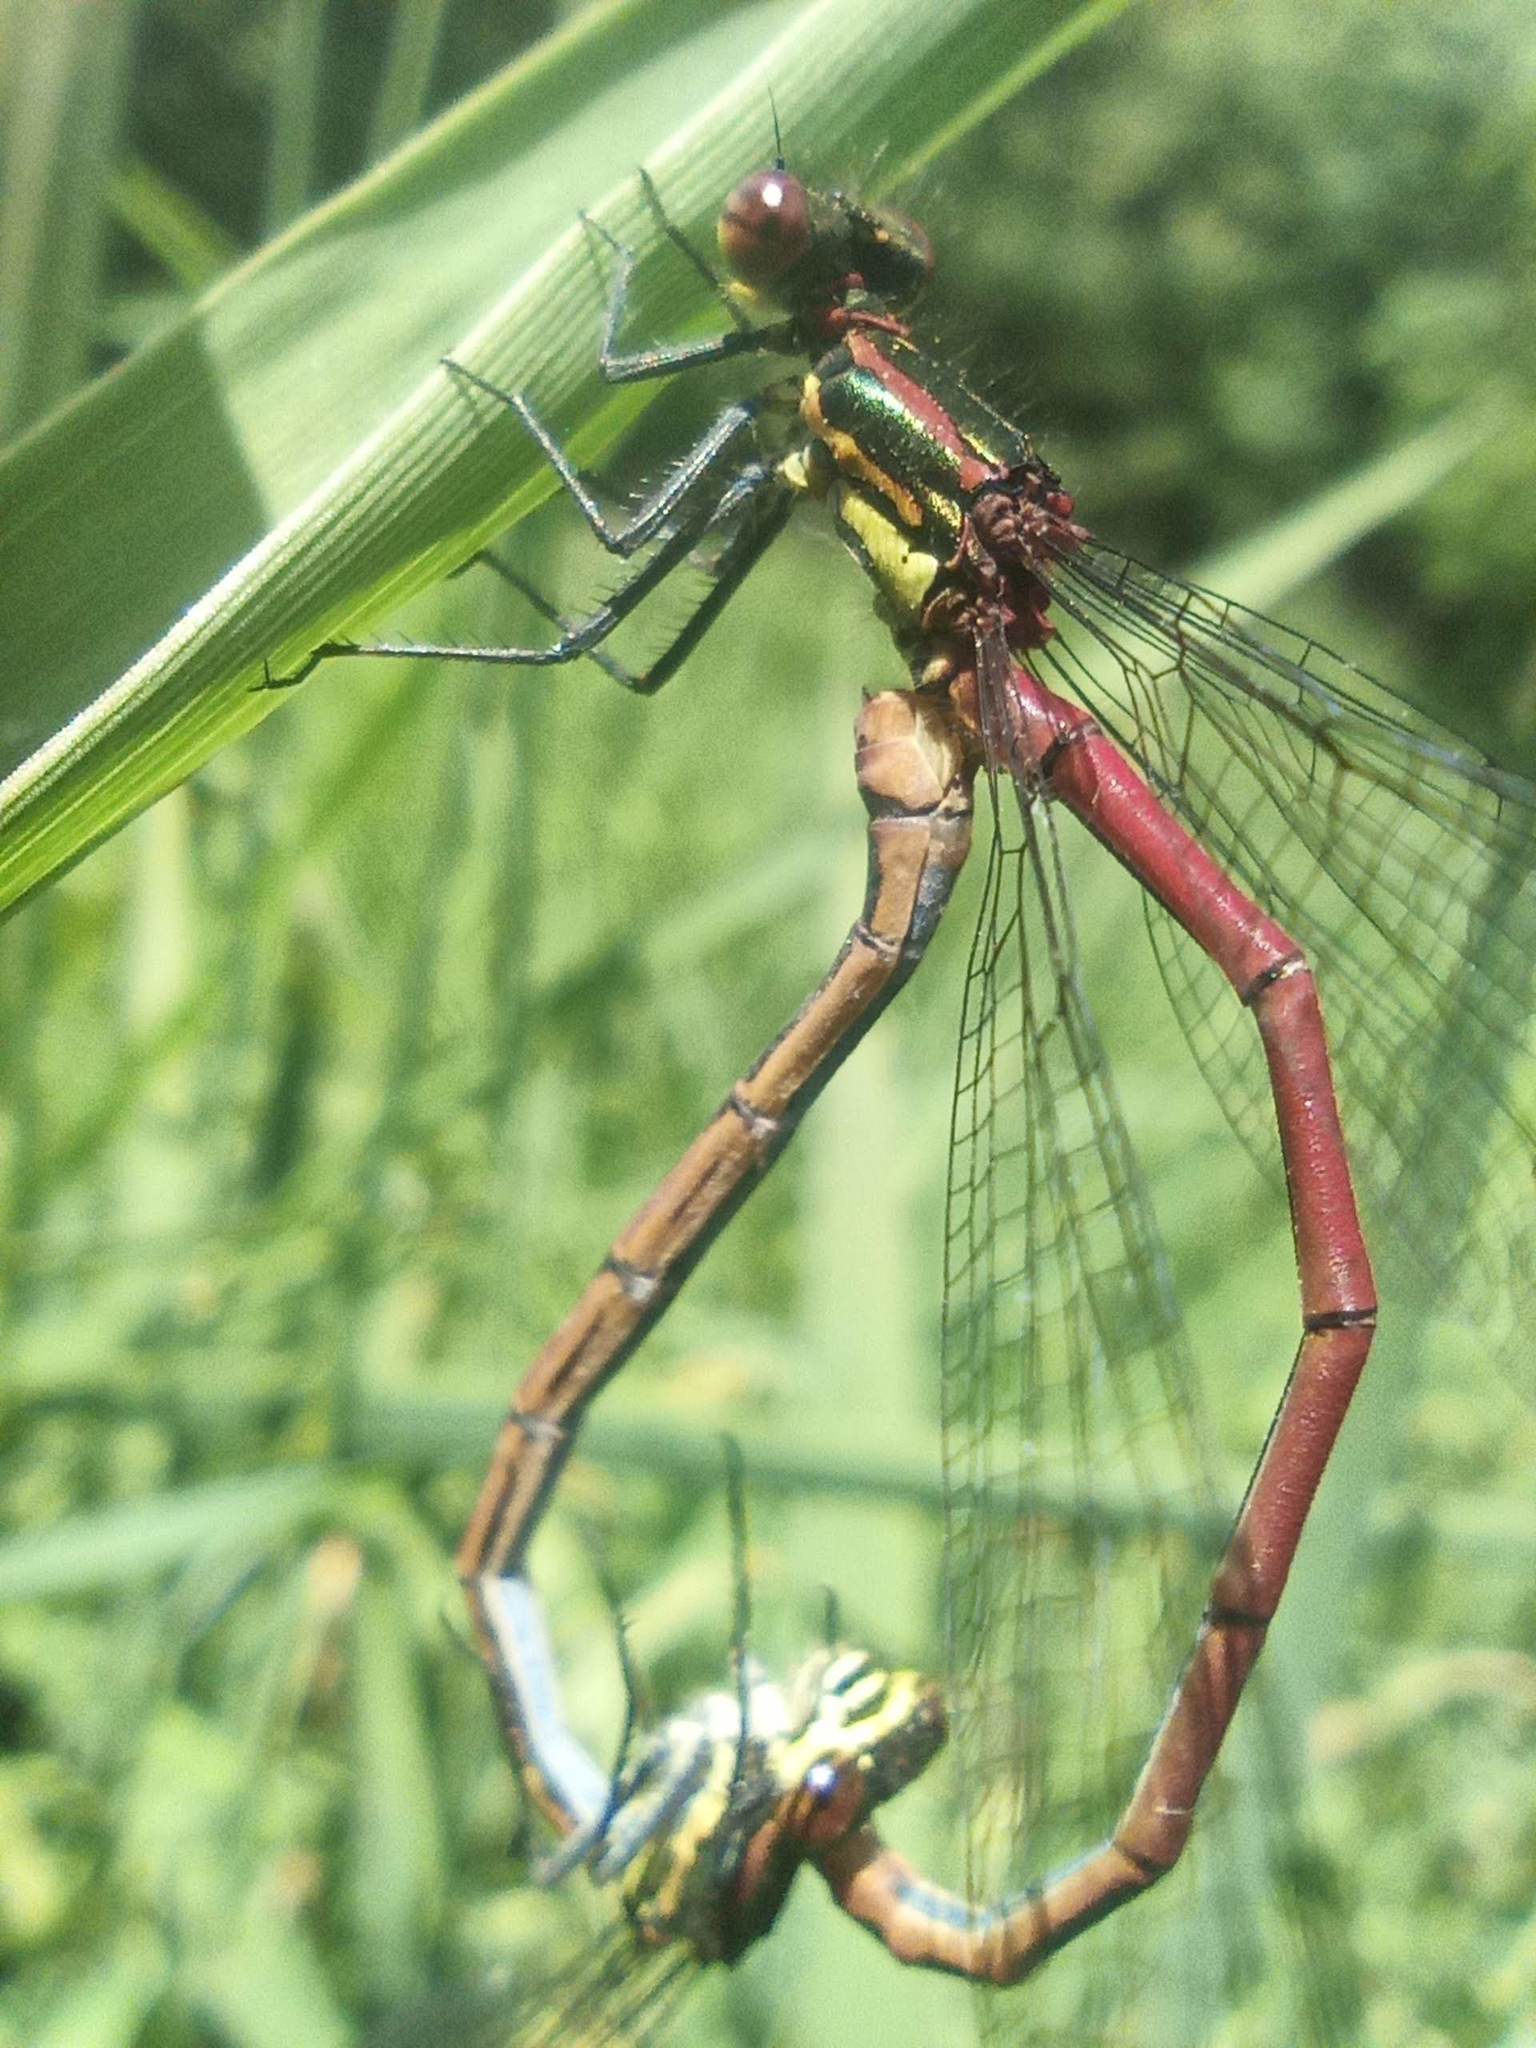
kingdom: Animalia
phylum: Arthropoda
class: Insecta
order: Odonata
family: Coenagrionidae
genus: Pyrrhosoma
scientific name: Pyrrhosoma nymphula
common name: Large red damsel
